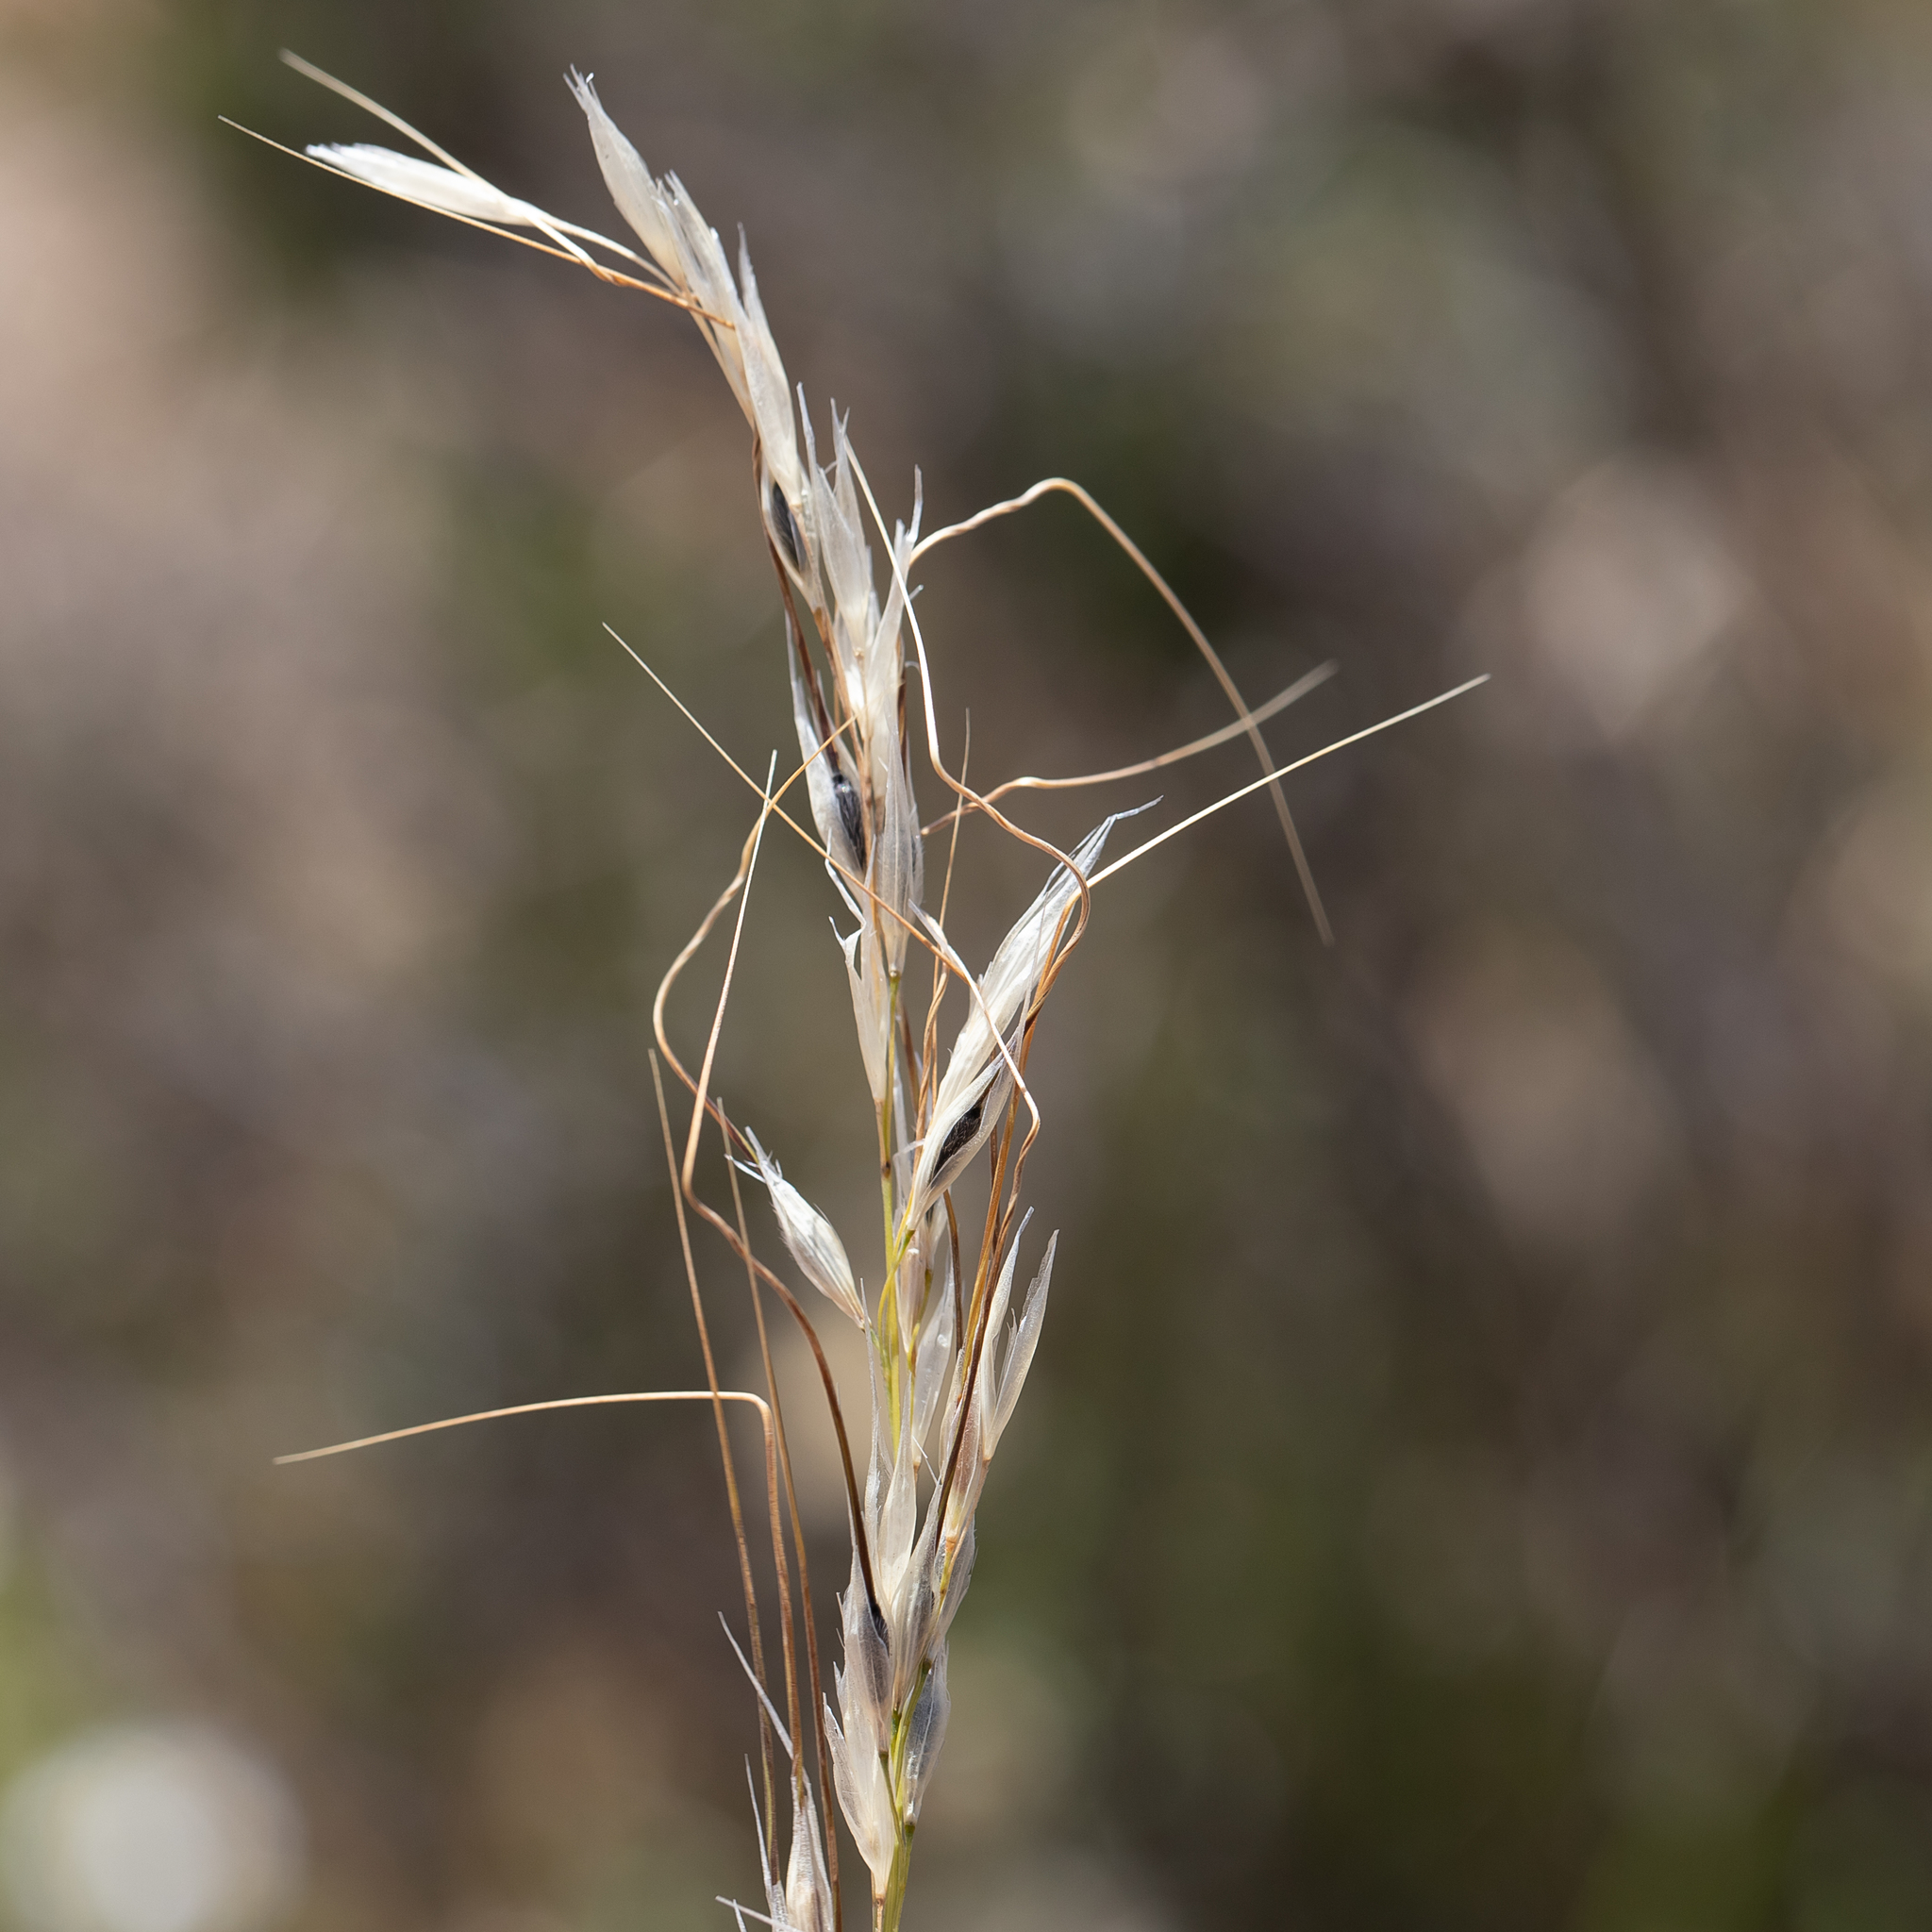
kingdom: Plantae
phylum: Tracheophyta
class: Liliopsida
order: Poales
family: Poaceae
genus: Austrostipa
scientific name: Austrostipa setacea
